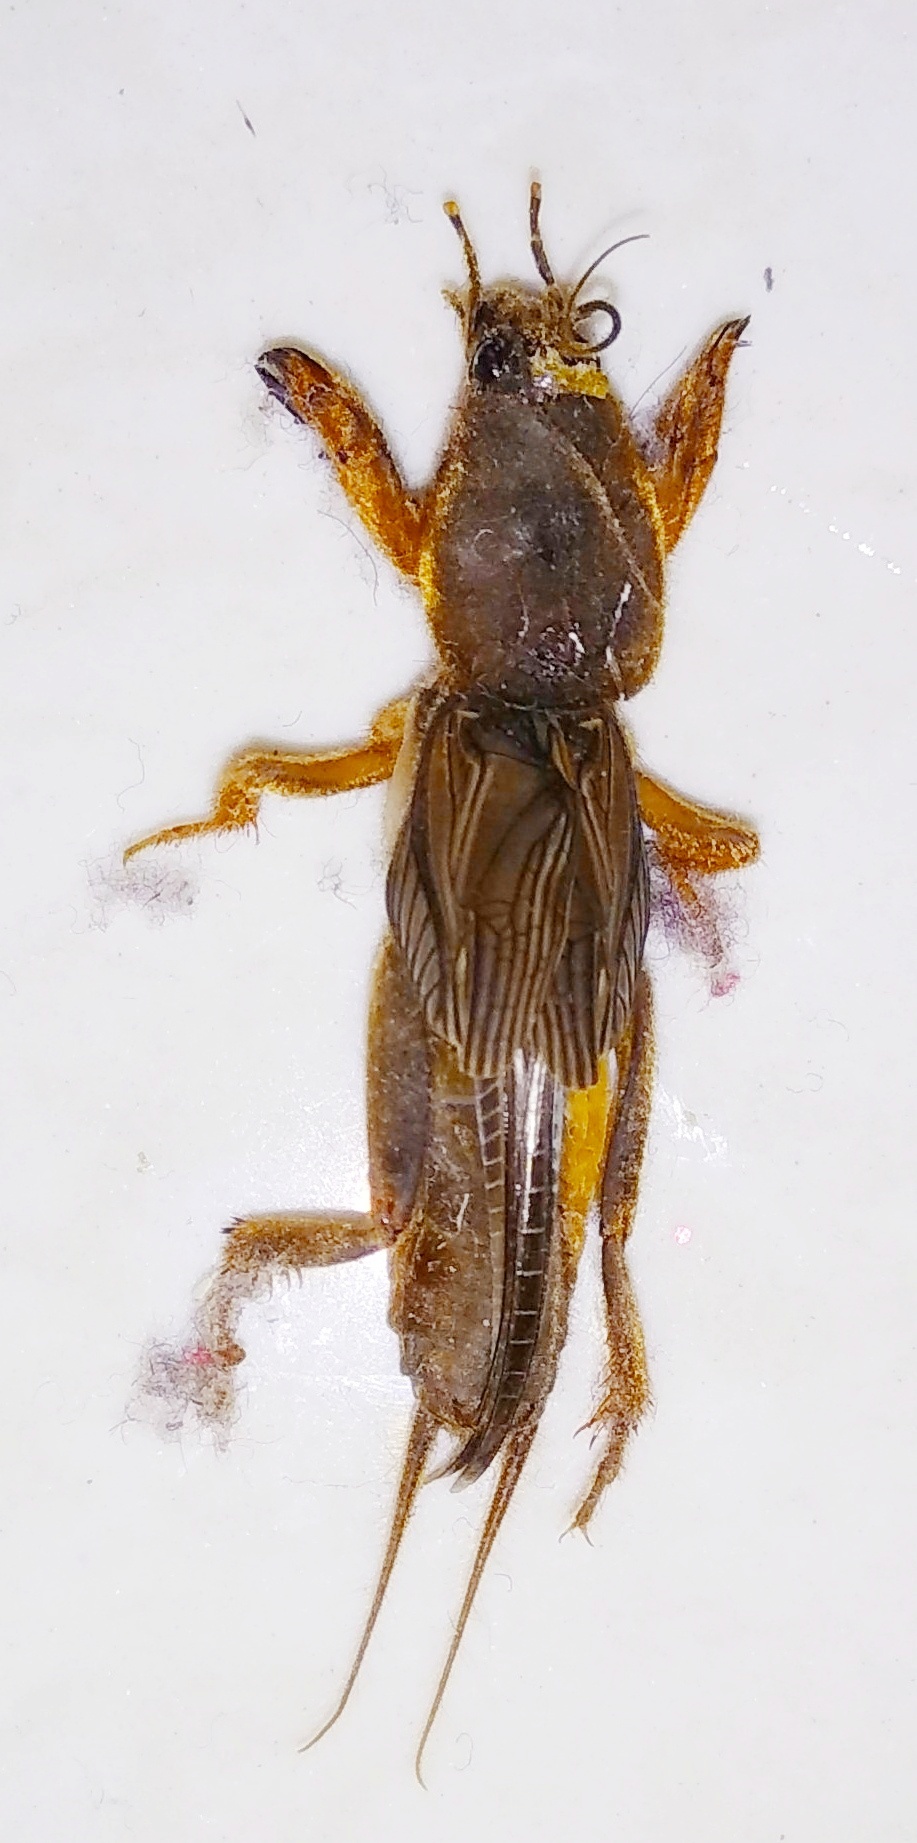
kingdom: Animalia
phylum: Arthropoda
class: Insecta
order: Orthoptera
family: Gryllotalpidae
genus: Gryllotalpa
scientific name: Gryllotalpa orientalis
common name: Grasshopper
